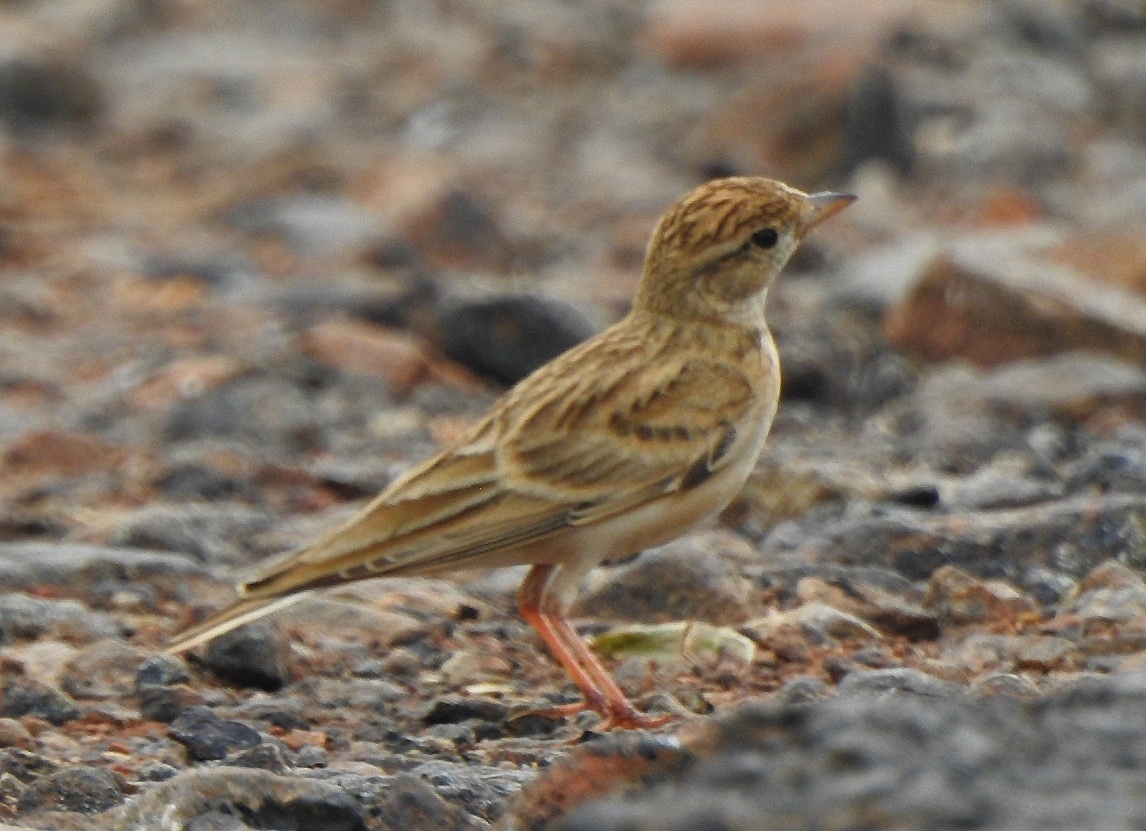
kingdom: Animalia
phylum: Chordata
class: Aves
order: Passeriformes
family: Alaudidae
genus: Calandrella
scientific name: Calandrella brachydactyla
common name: Greater short-toed lark
